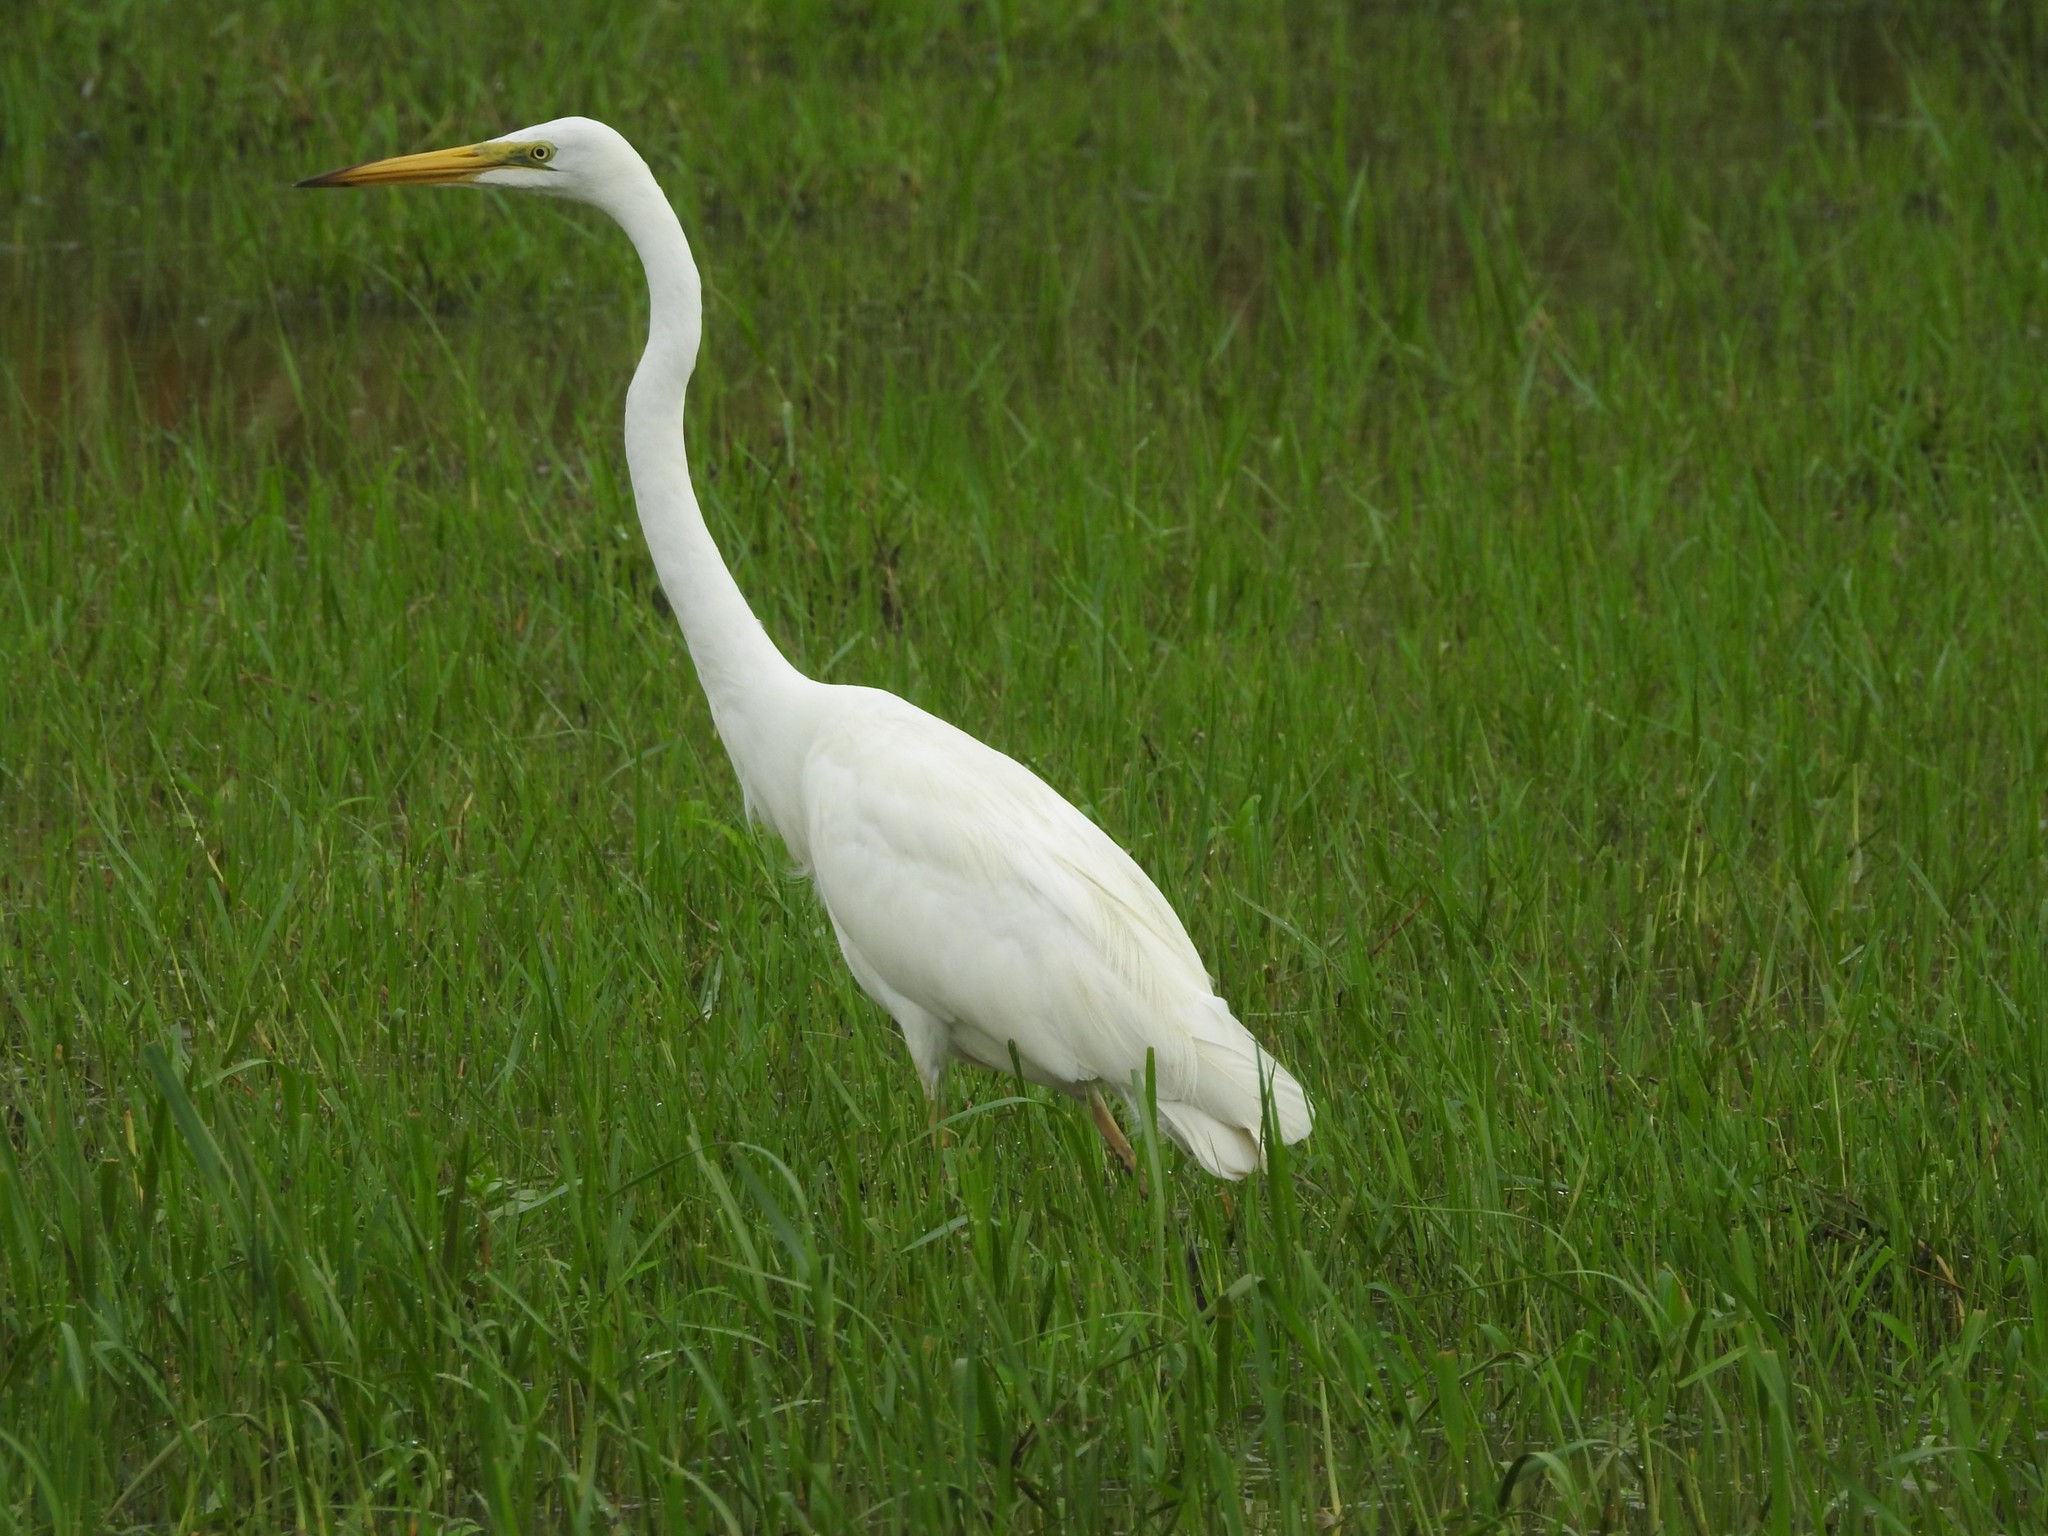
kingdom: Animalia
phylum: Chordata
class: Aves
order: Pelecaniformes
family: Ardeidae
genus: Ardea
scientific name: Ardea alba
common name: Great egret
